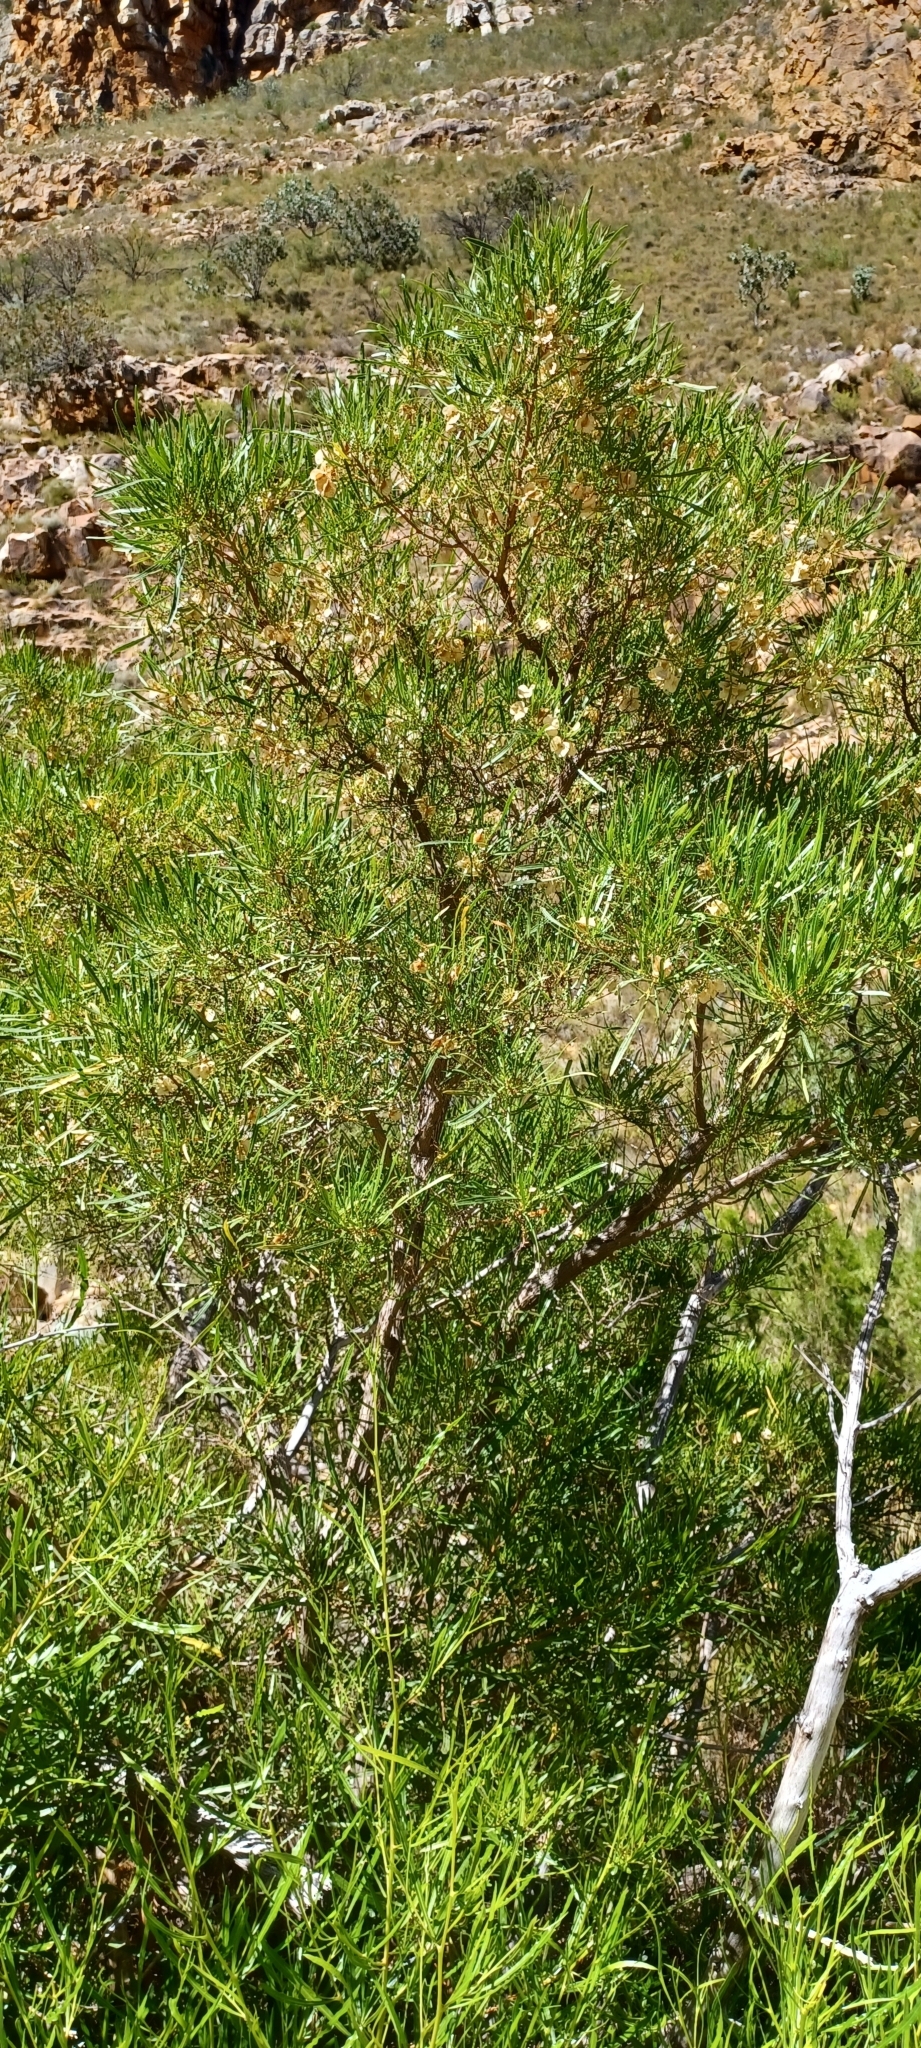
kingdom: Plantae
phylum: Tracheophyta
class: Magnoliopsida
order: Sapindales
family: Sapindaceae
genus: Dodonaea
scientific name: Dodonaea viscosa
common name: Hopbush
